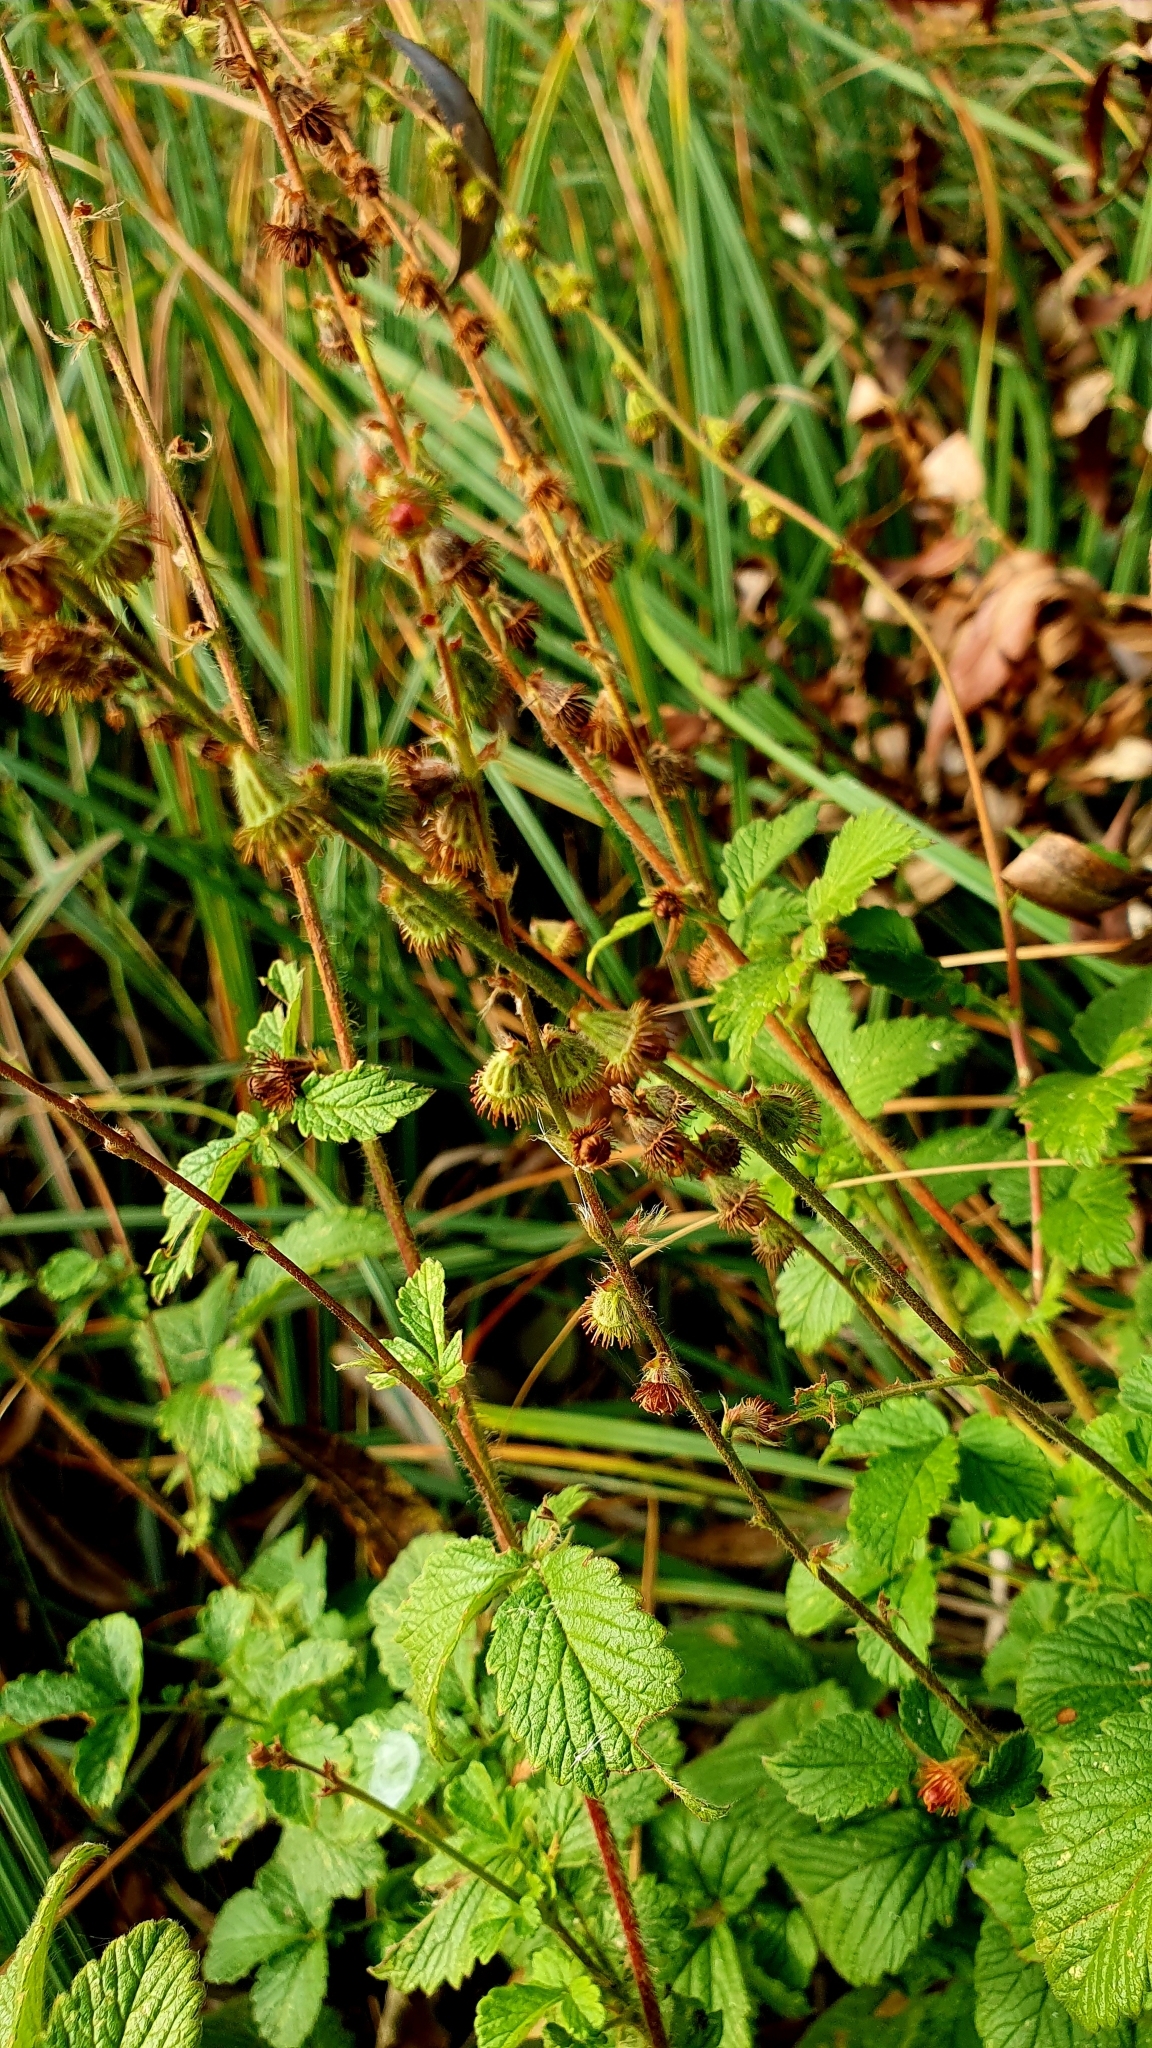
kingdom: Plantae
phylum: Tracheophyta
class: Magnoliopsida
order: Rosales
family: Rosaceae
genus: Agrimonia
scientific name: Agrimonia eupatoria
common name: Agrimony
